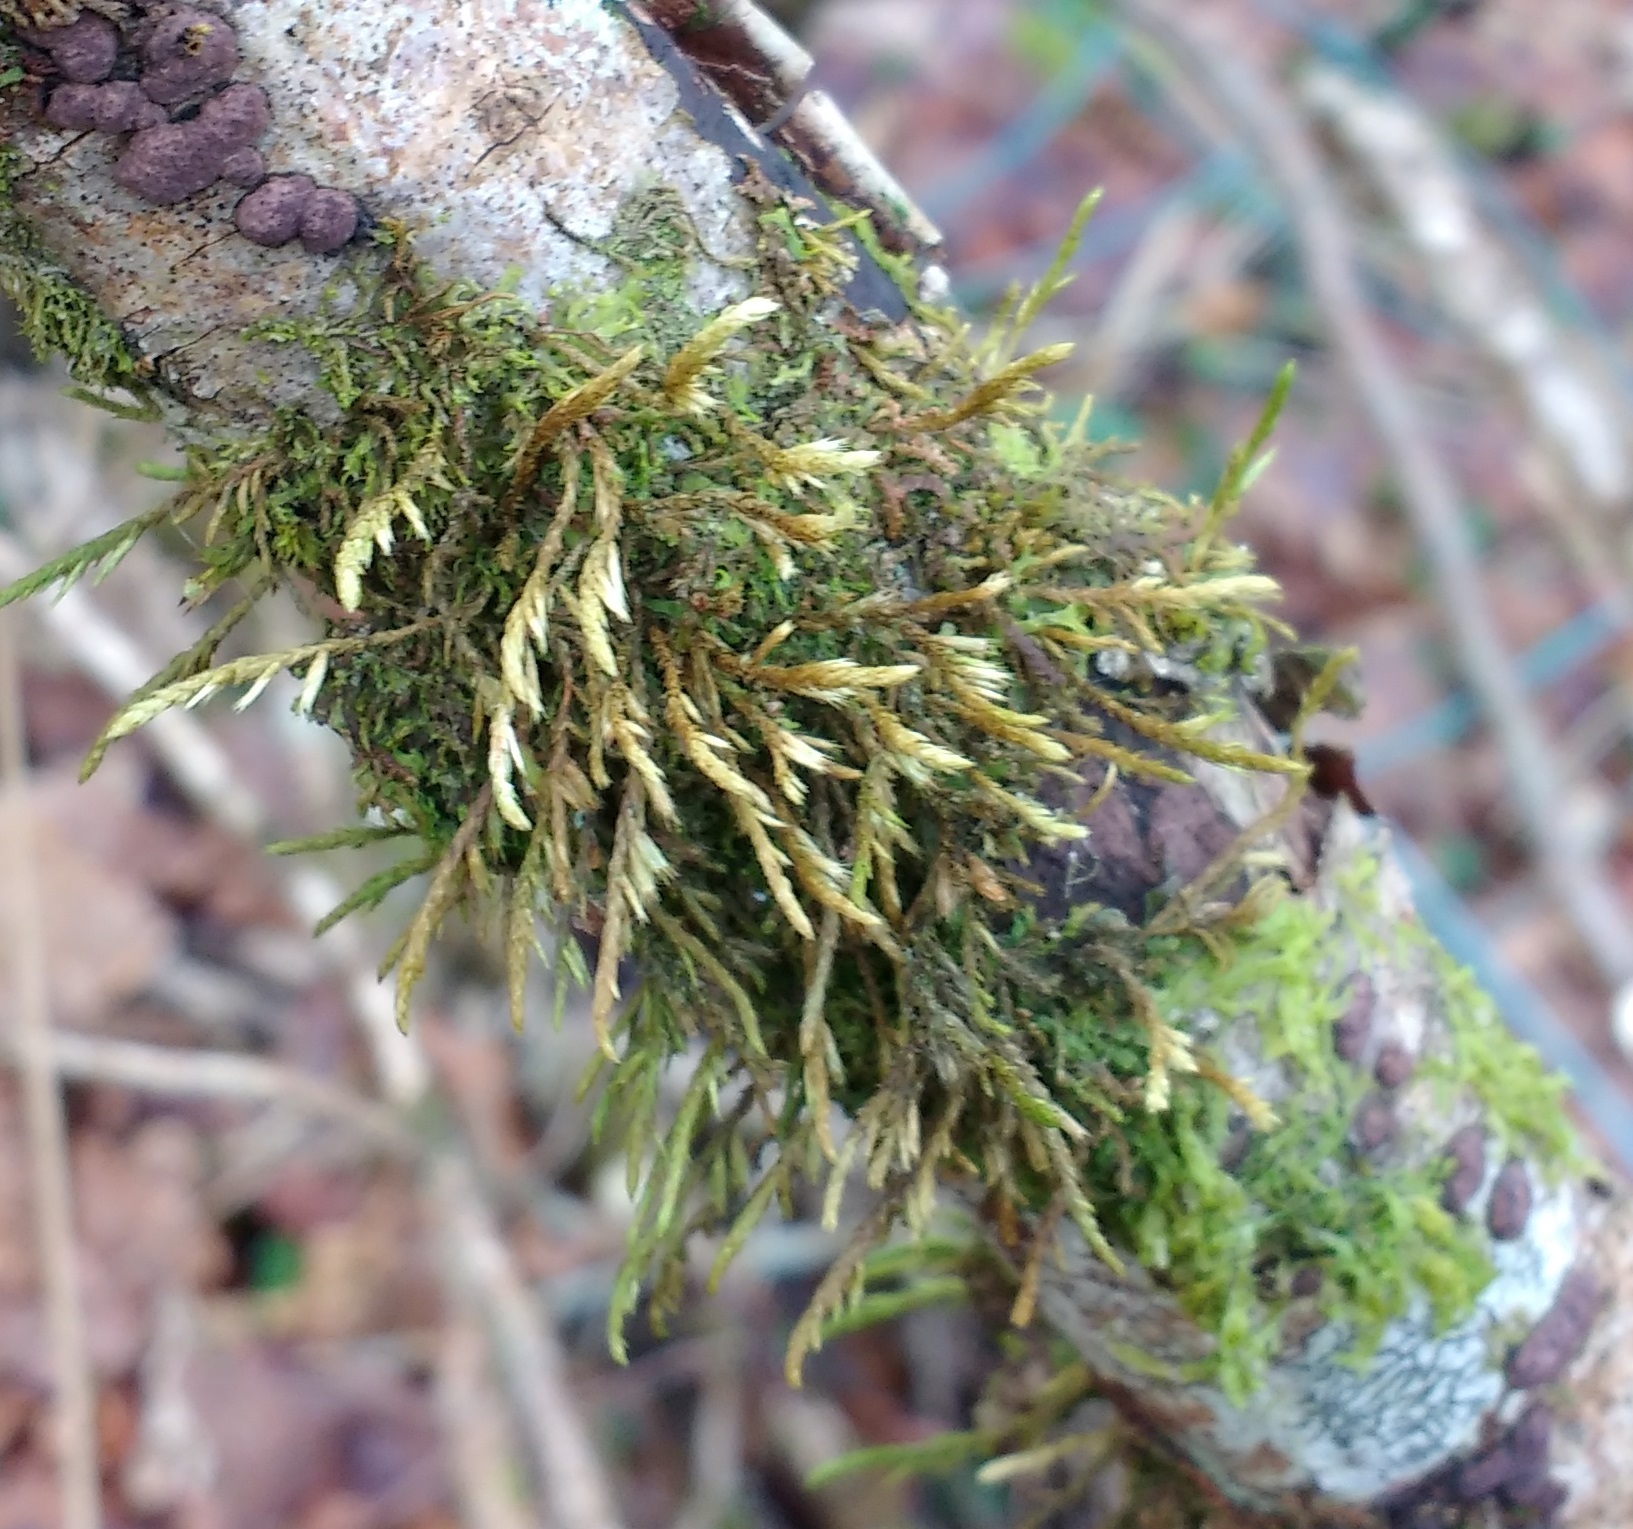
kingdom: Plantae
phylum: Bryophyta
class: Bryopsida
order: Hypnales
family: Cryphaeaceae
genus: Cryphaea
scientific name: Cryphaea heteromalla
